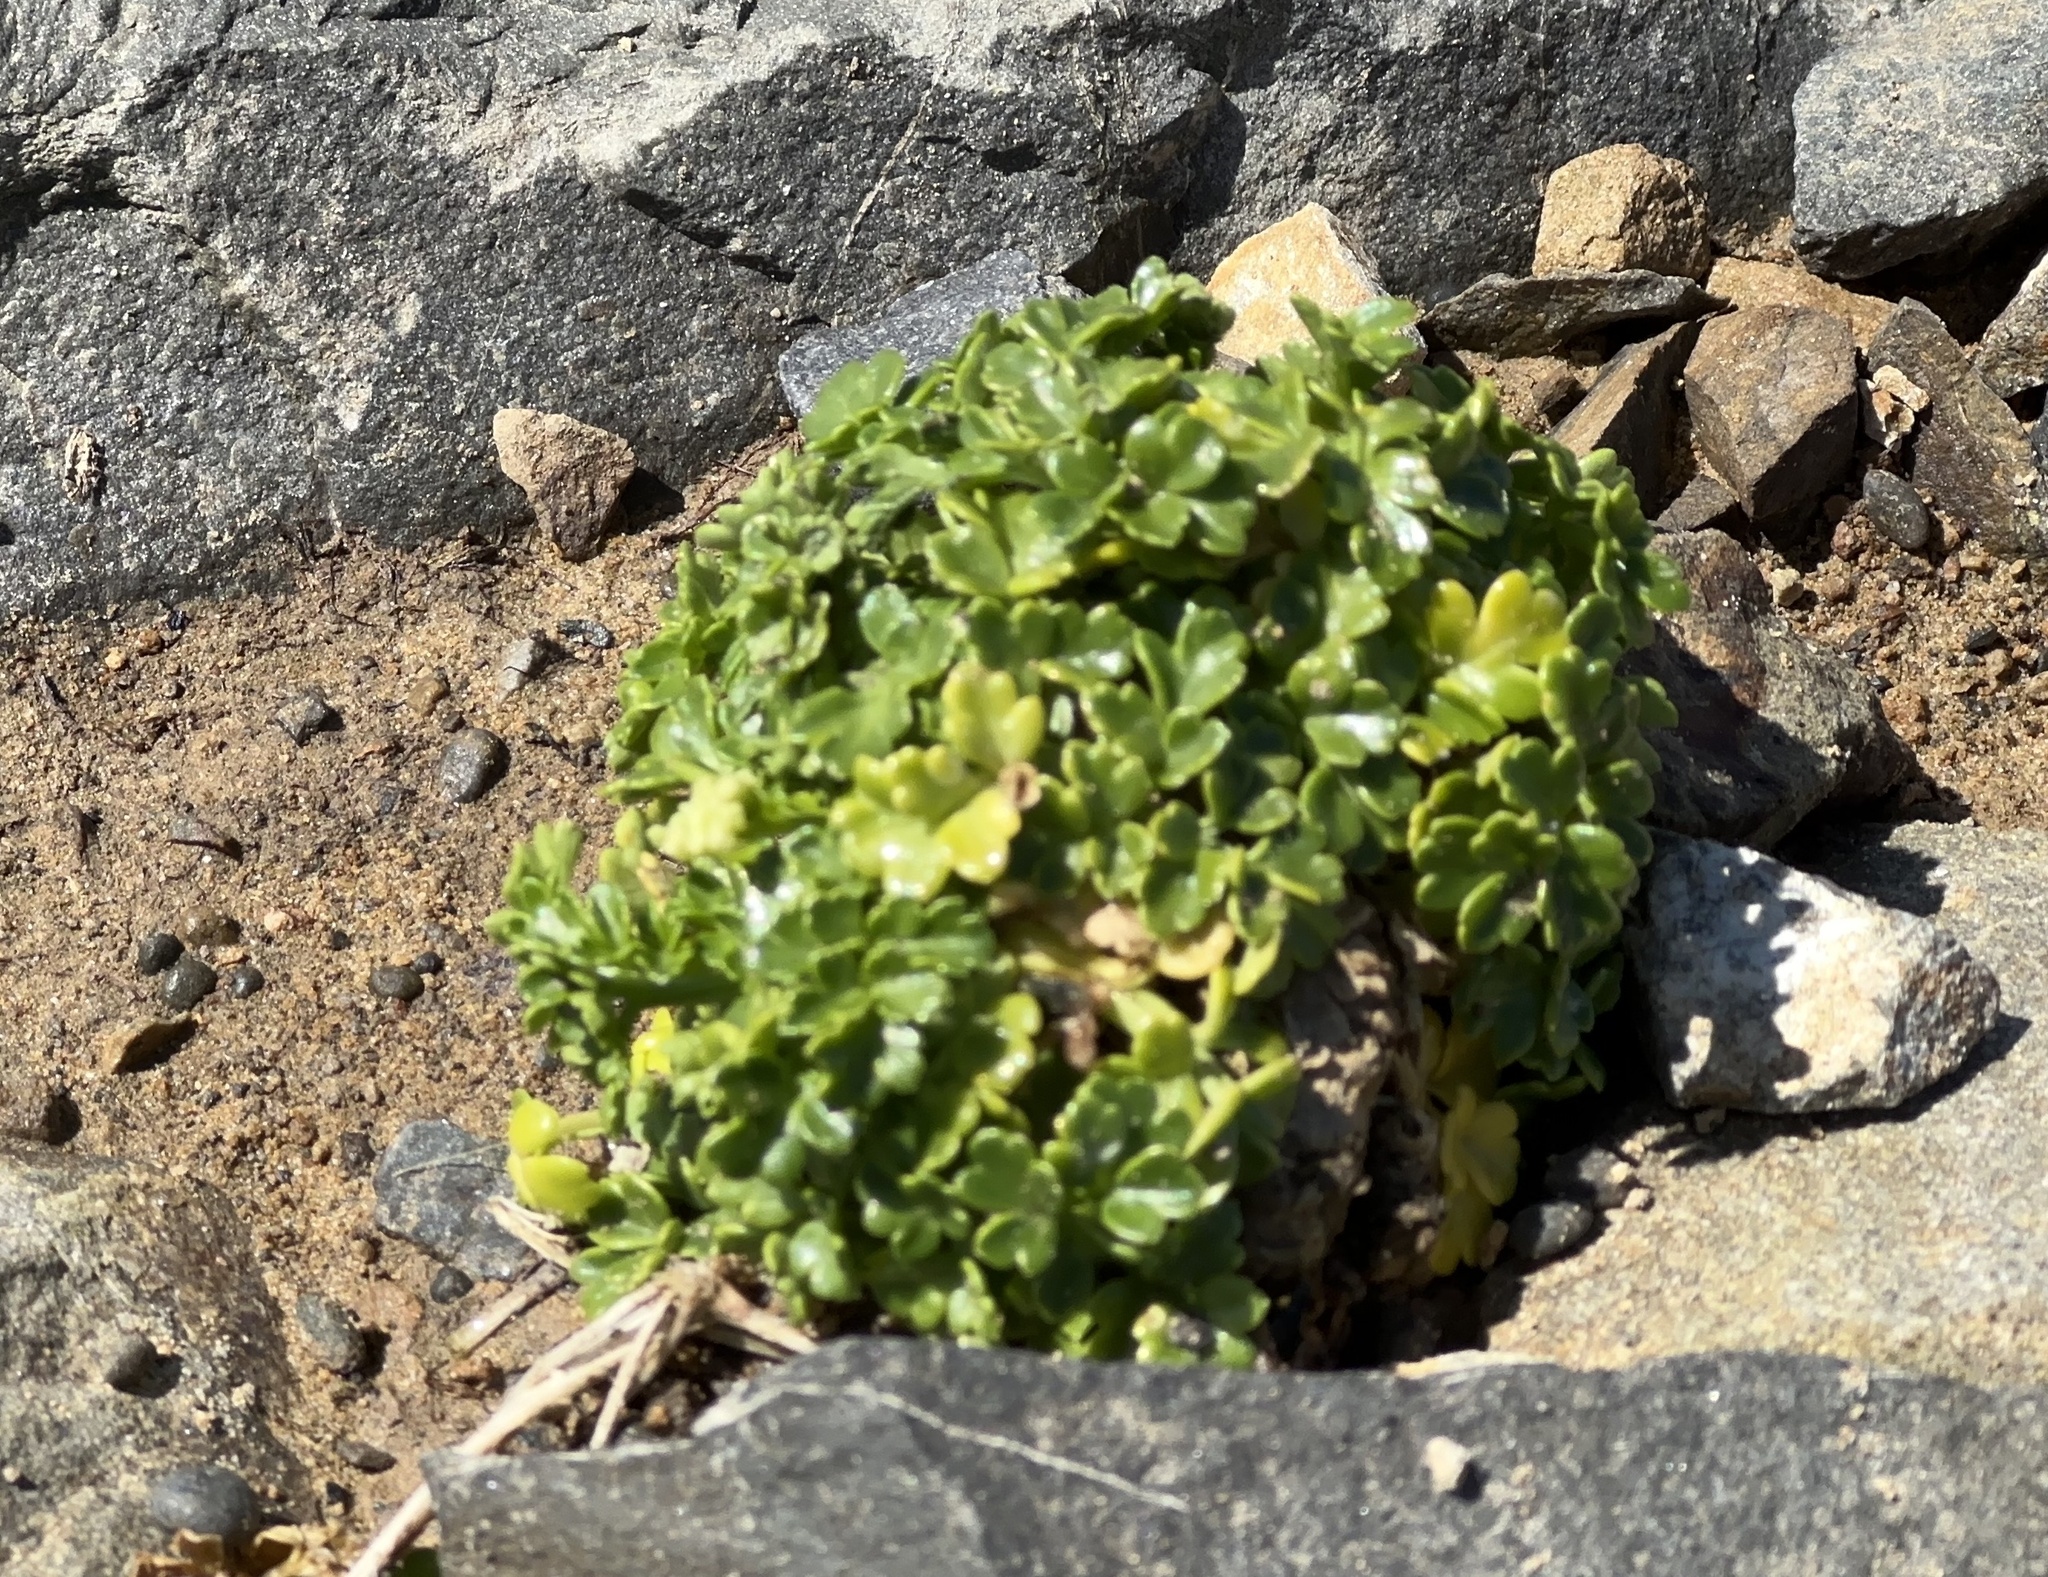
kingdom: Plantae
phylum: Tracheophyta
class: Magnoliopsida
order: Apiales
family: Apiaceae
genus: Apium
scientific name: Apium prostratum
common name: Prostrate marshwort
